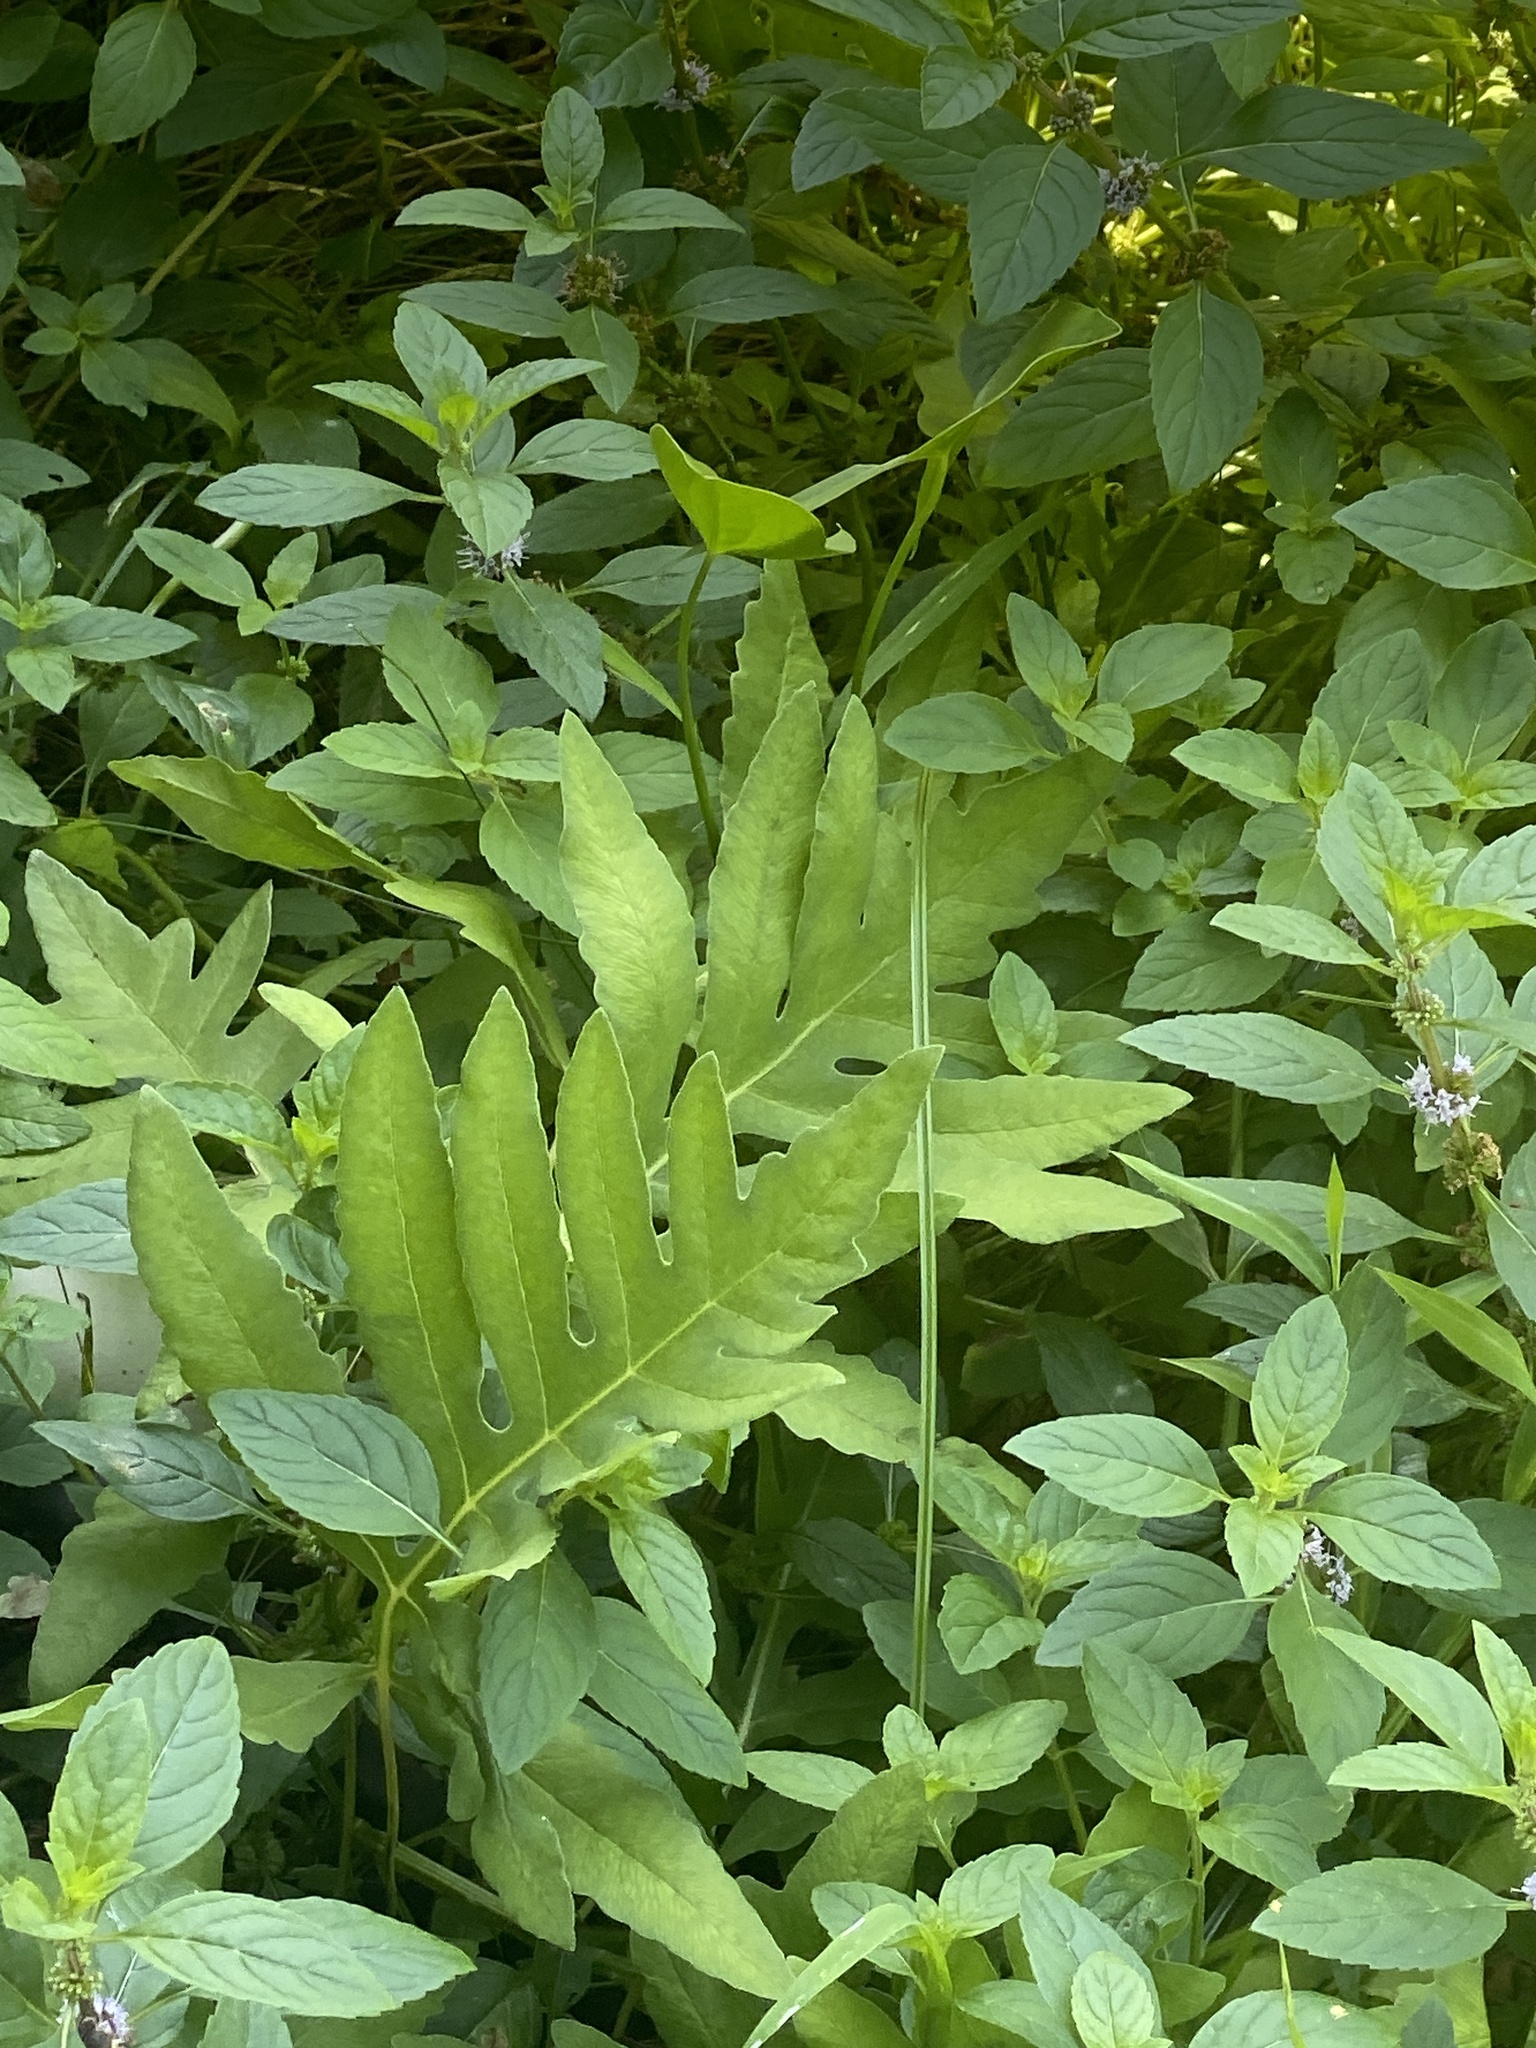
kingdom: Plantae
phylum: Tracheophyta
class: Polypodiopsida
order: Polypodiales
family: Onocleaceae
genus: Onoclea
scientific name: Onoclea sensibilis
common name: Sensitive fern
